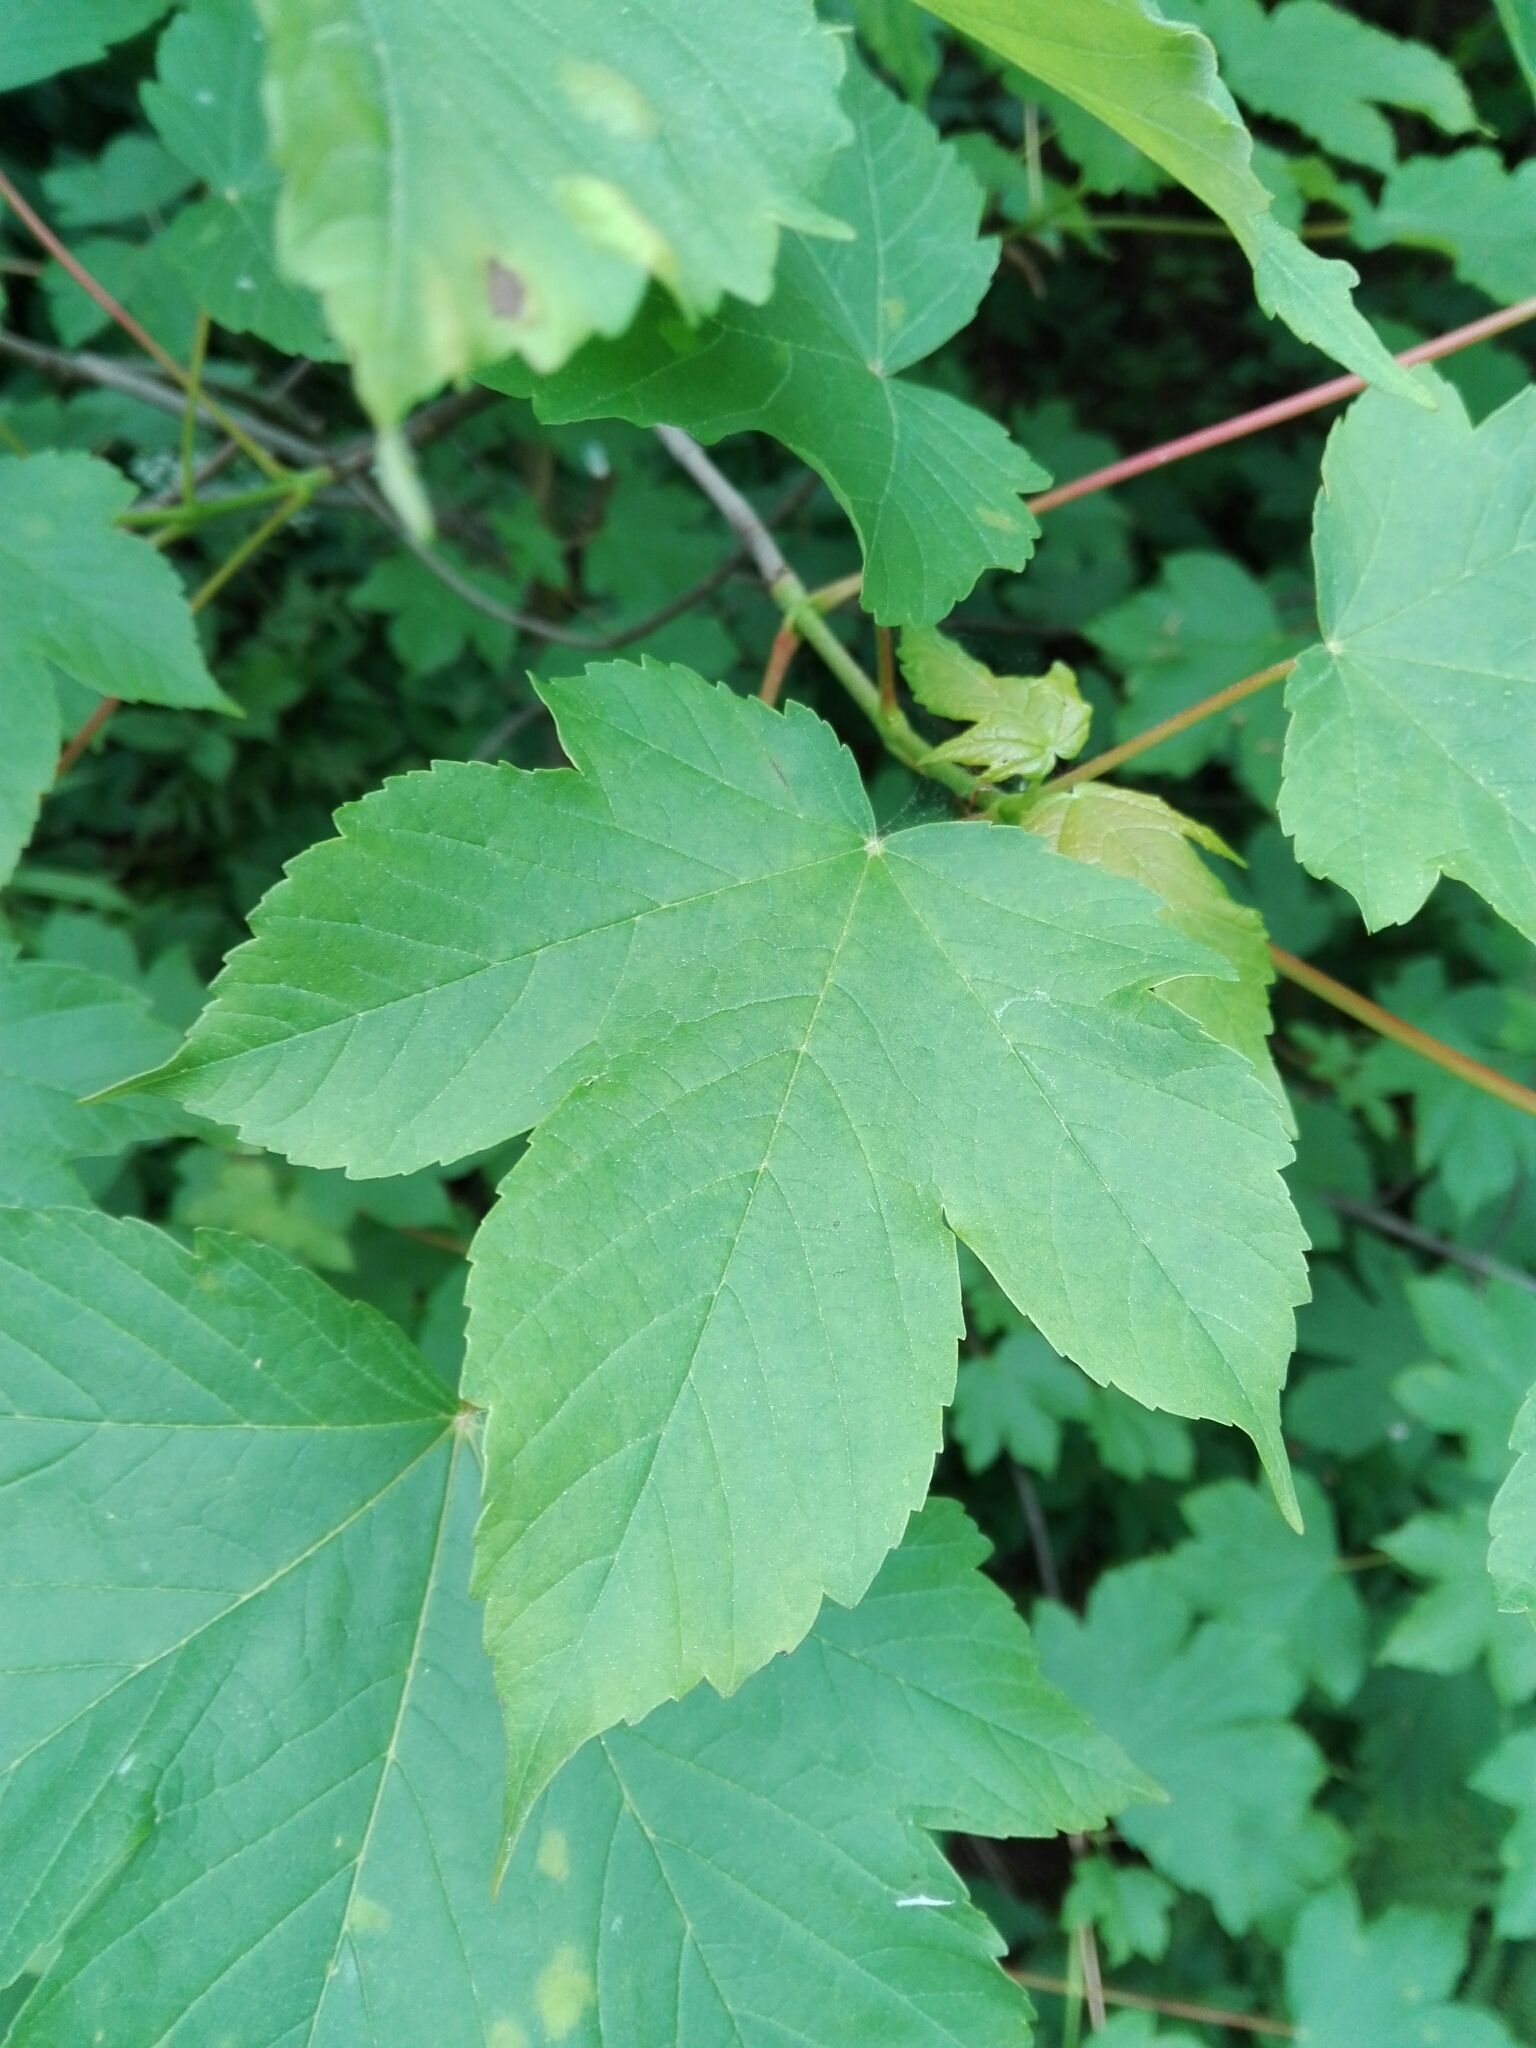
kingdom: Plantae
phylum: Tracheophyta
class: Magnoliopsida
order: Sapindales
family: Sapindaceae
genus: Acer
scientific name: Acer pseudoplatanus
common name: Sycamore
